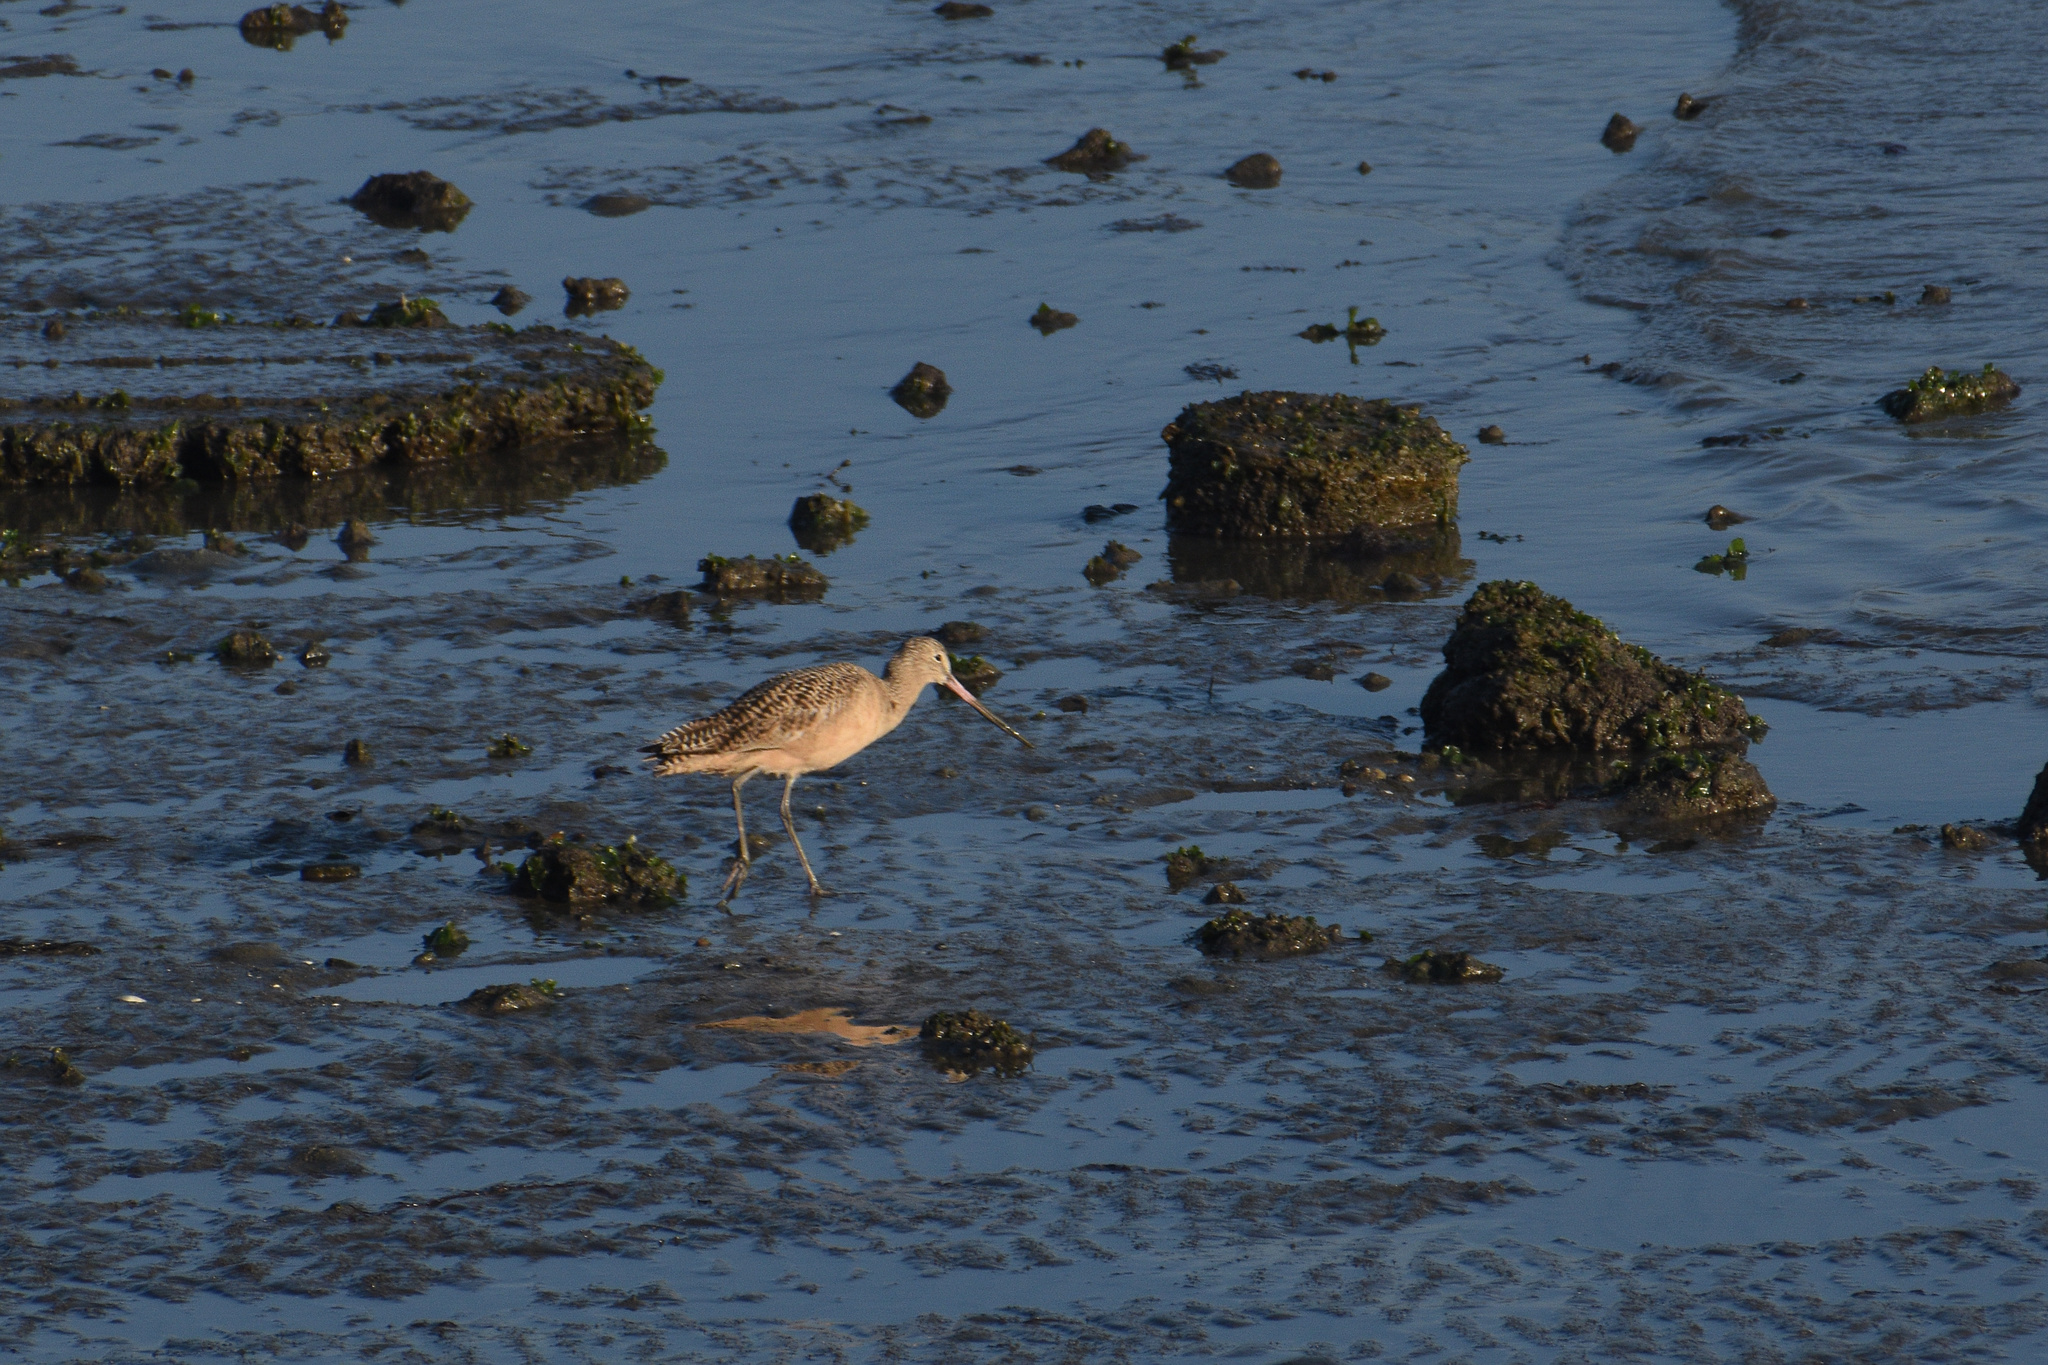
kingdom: Animalia
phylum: Chordata
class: Aves
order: Charadriiformes
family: Scolopacidae
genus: Limosa
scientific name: Limosa fedoa
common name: Marbled godwit
